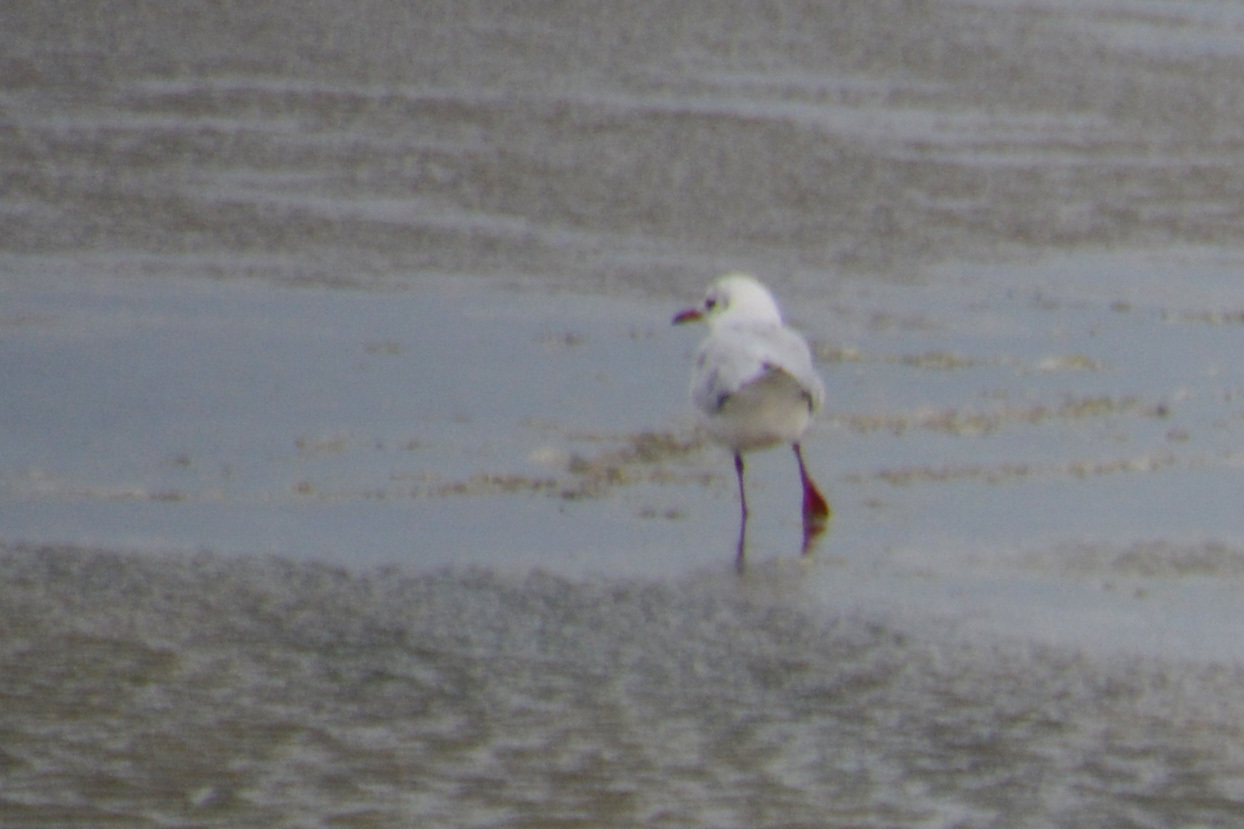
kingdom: Animalia
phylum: Chordata
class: Aves
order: Charadriiformes
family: Laridae
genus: Chroicocephalus
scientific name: Chroicocephalus maculipennis
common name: Brown-hooded gull
